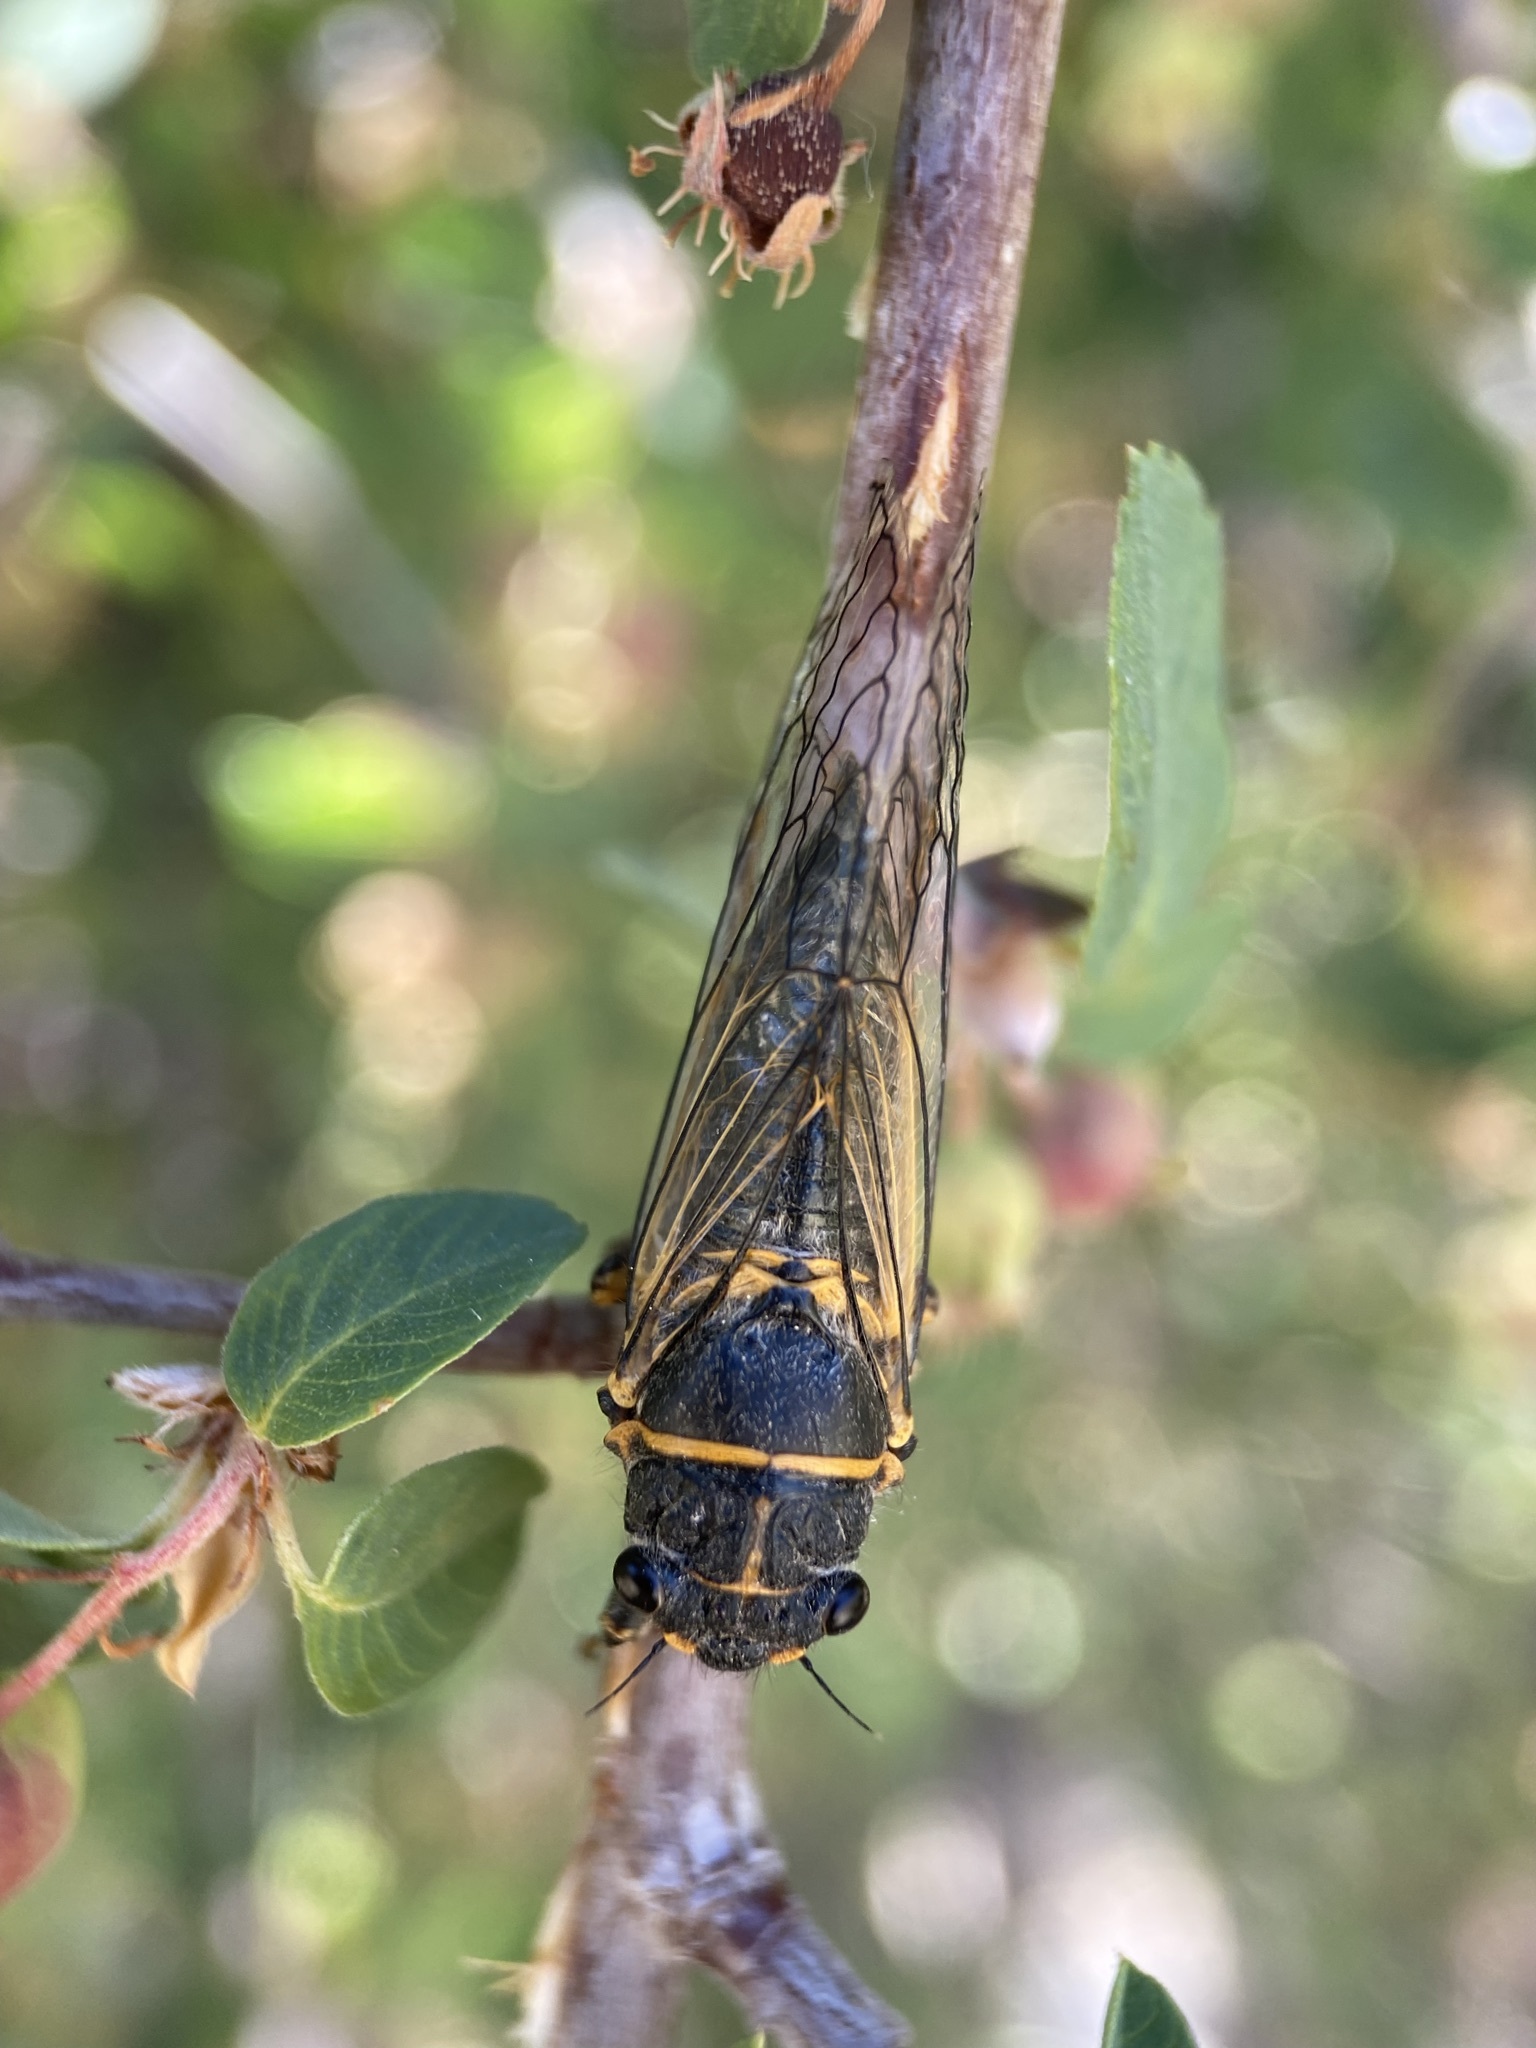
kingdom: Animalia
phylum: Arthropoda
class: Insecta
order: Hemiptera
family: Cicadidae
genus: Platypedia
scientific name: Platypedia putnami
